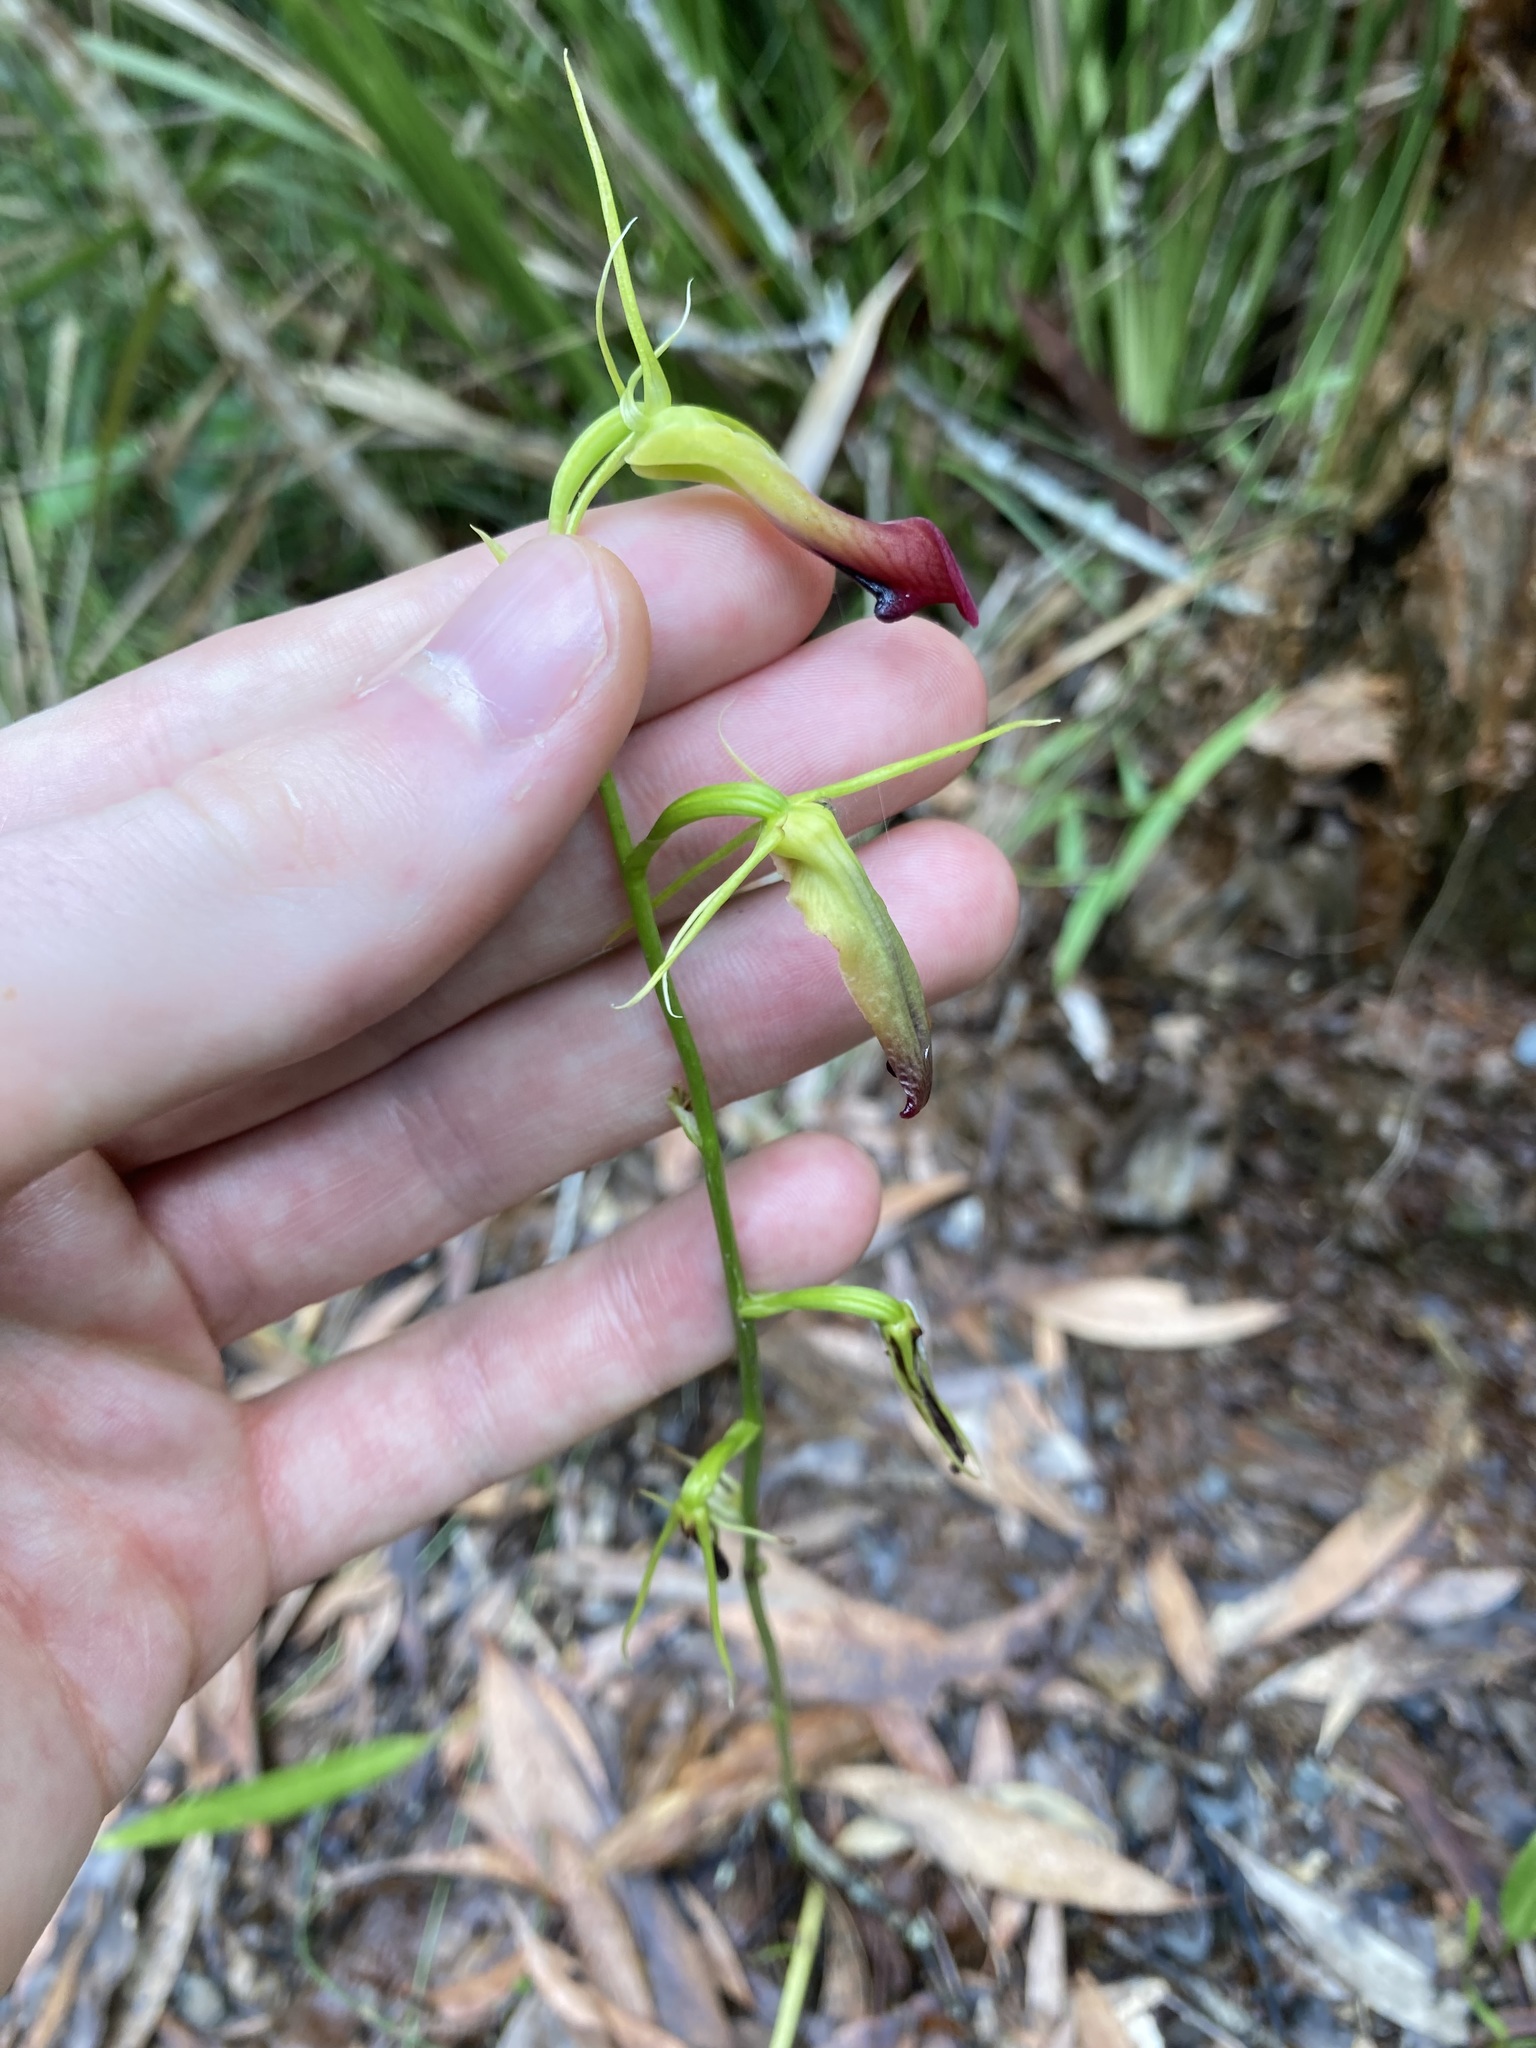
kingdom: Plantae
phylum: Tracheophyta
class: Liliopsida
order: Asparagales
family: Orchidaceae
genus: Cryptostylis
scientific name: Cryptostylis subulata
